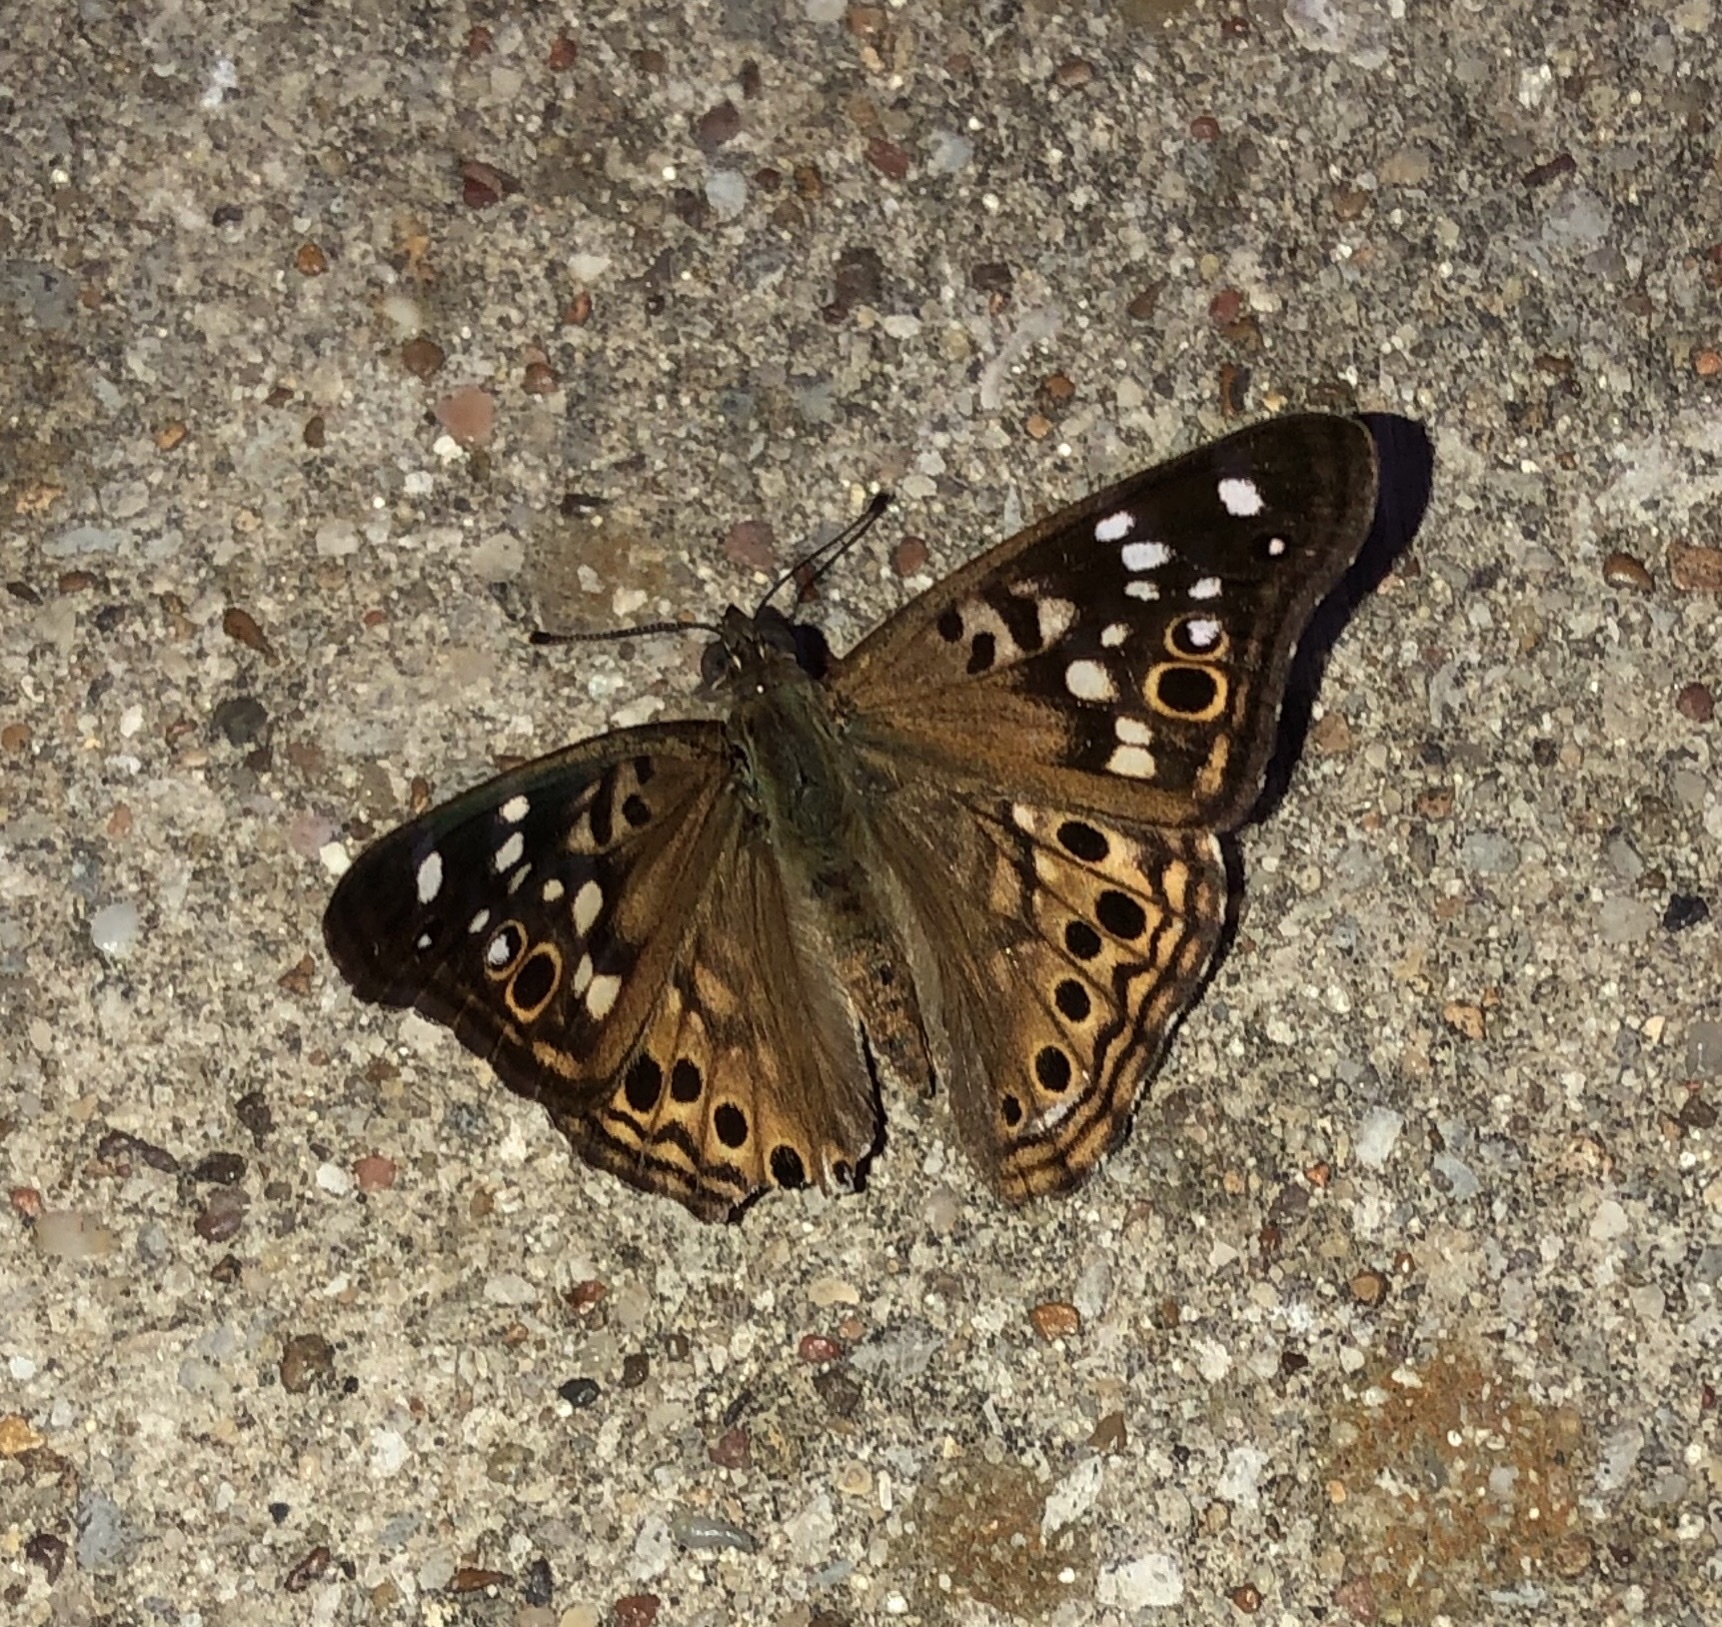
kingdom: Animalia
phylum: Arthropoda
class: Insecta
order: Lepidoptera
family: Nymphalidae
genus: Asterocampa
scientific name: Asterocampa celtis
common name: Hackberry emperor
